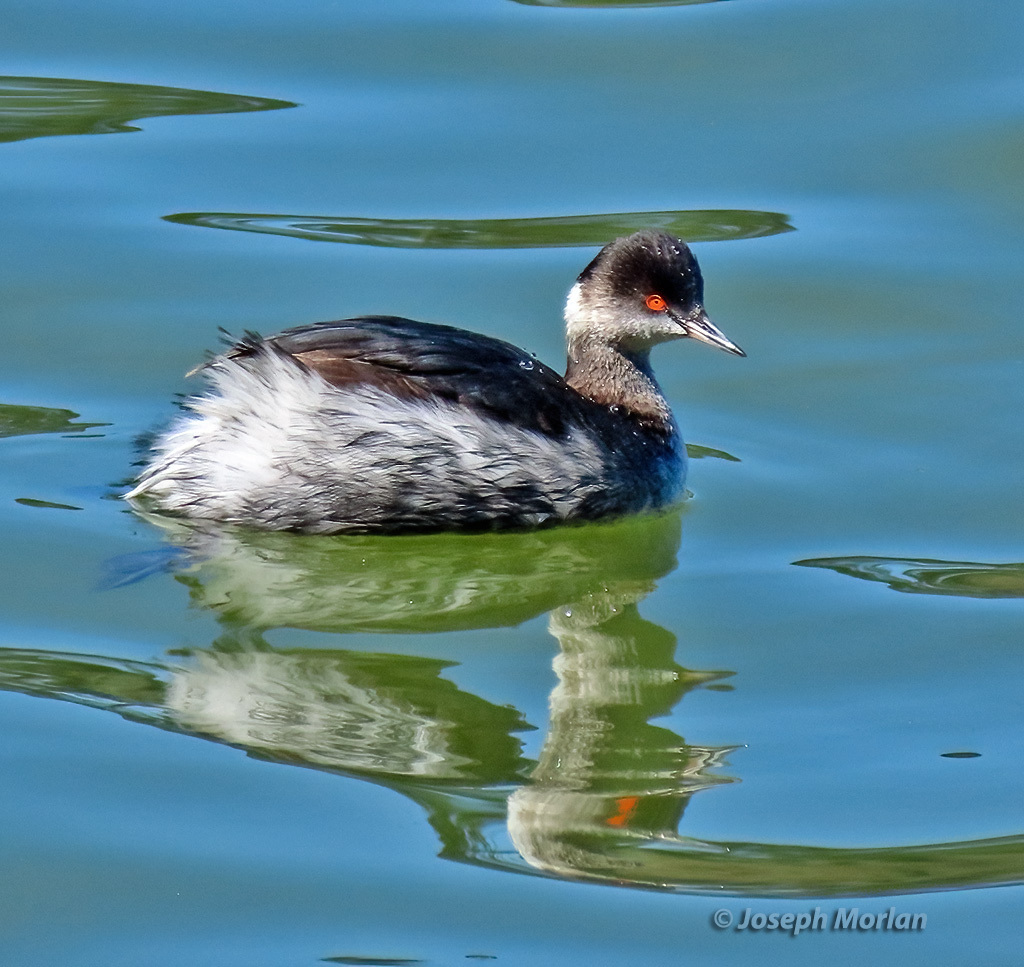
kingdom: Animalia
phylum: Chordata
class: Aves
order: Podicipediformes
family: Podicipedidae
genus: Podiceps
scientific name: Podiceps nigricollis
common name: Black-necked grebe
